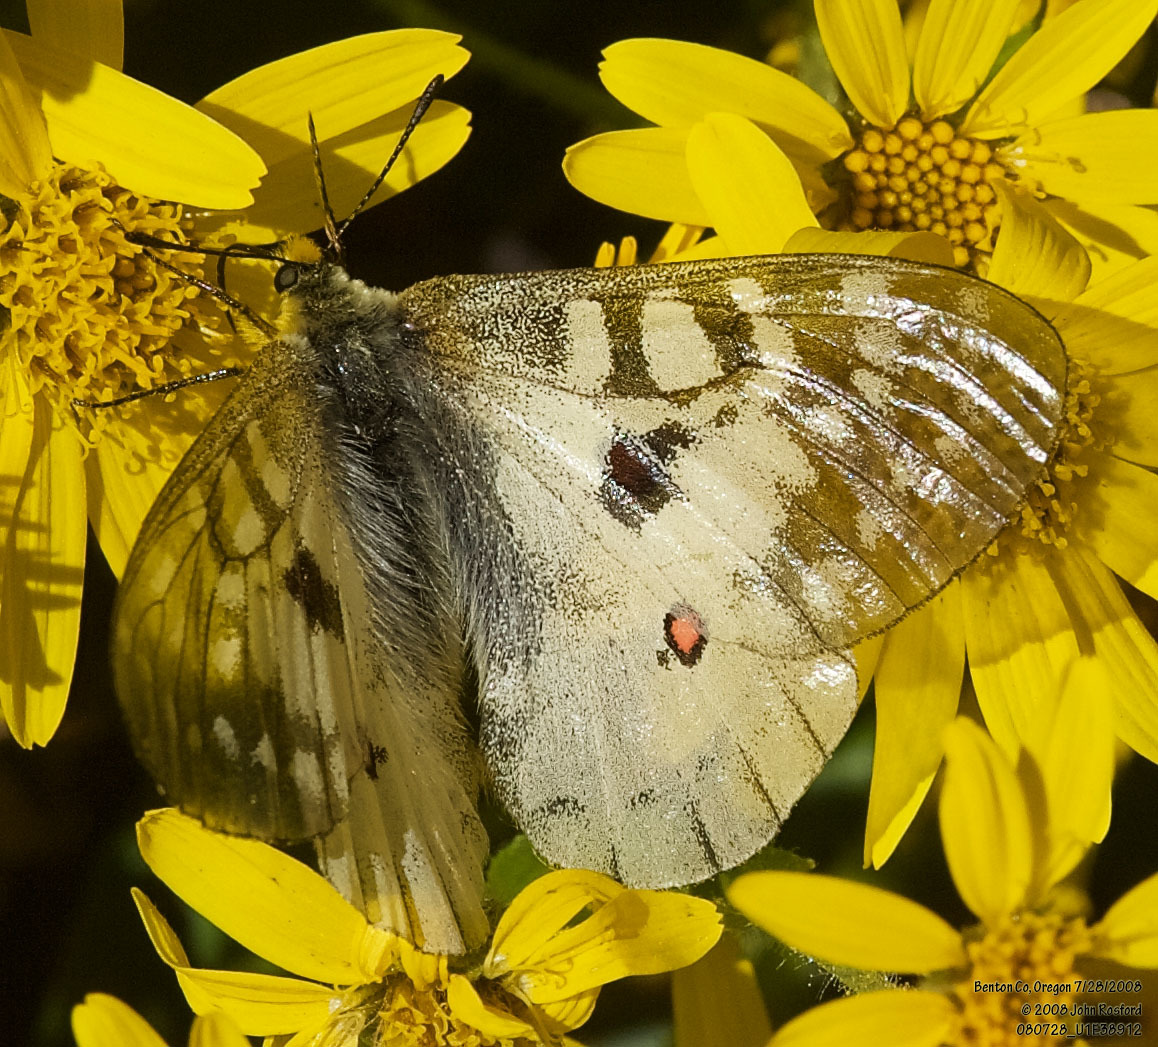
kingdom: Animalia
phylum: Arthropoda
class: Insecta
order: Lepidoptera
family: Papilionidae
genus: Parnassius
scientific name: Parnassius clodius
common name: American apollo
